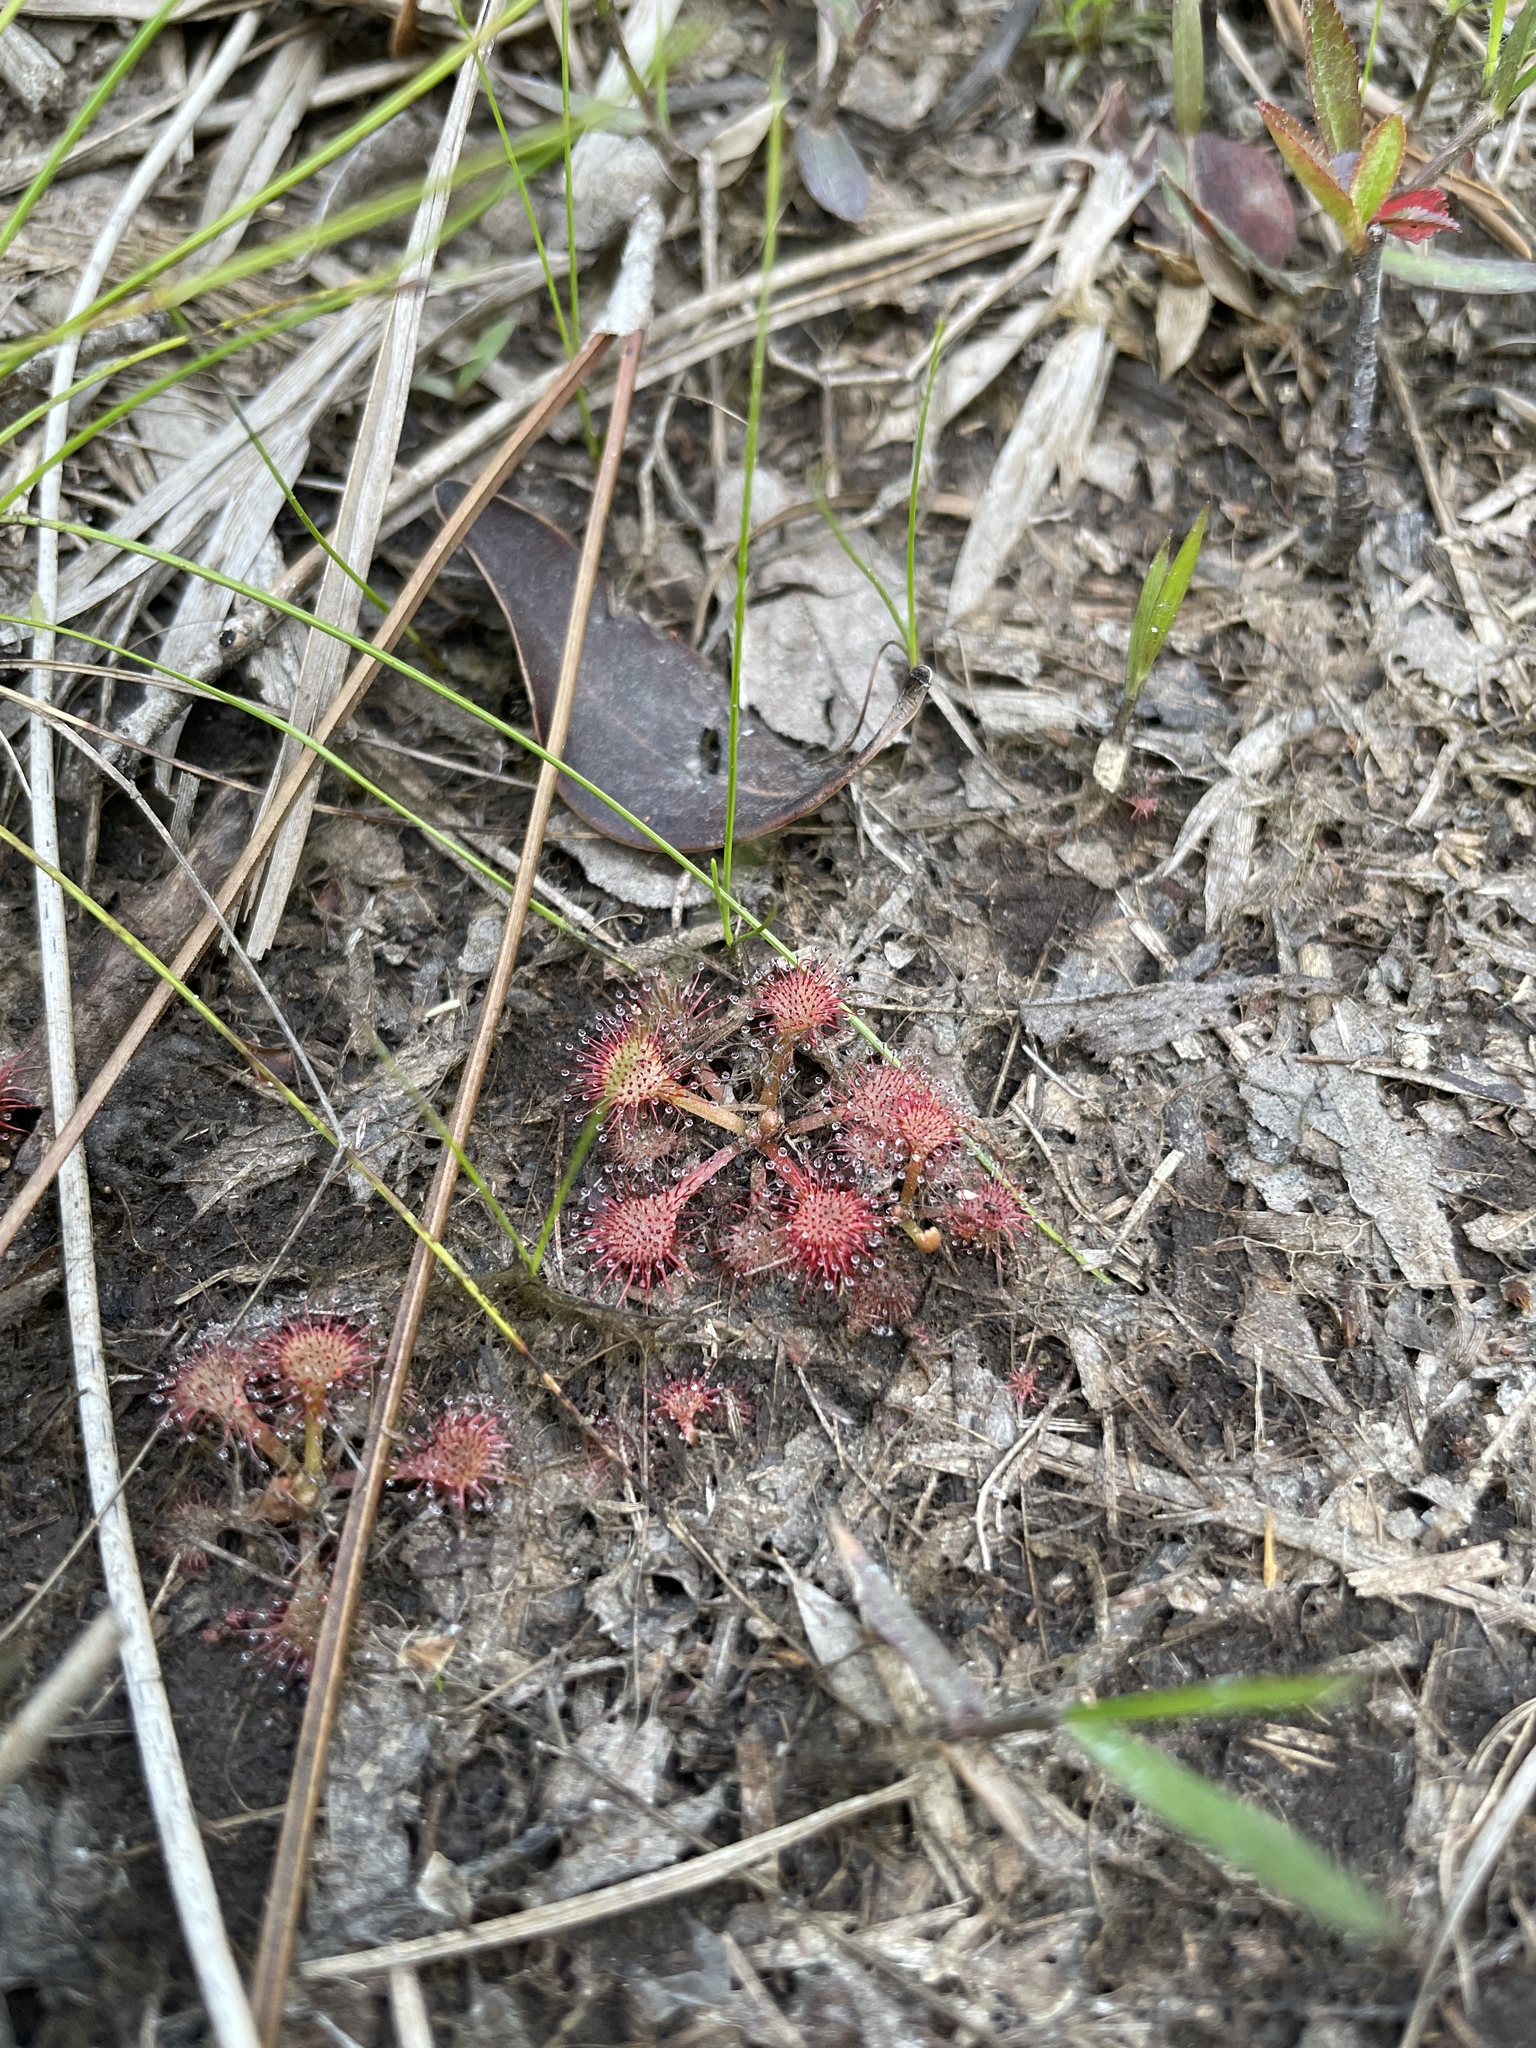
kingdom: Plantae
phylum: Tracheophyta
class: Magnoliopsida
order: Caryophyllales
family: Droseraceae
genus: Drosera
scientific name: Drosera capillaris
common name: Pink sundew
